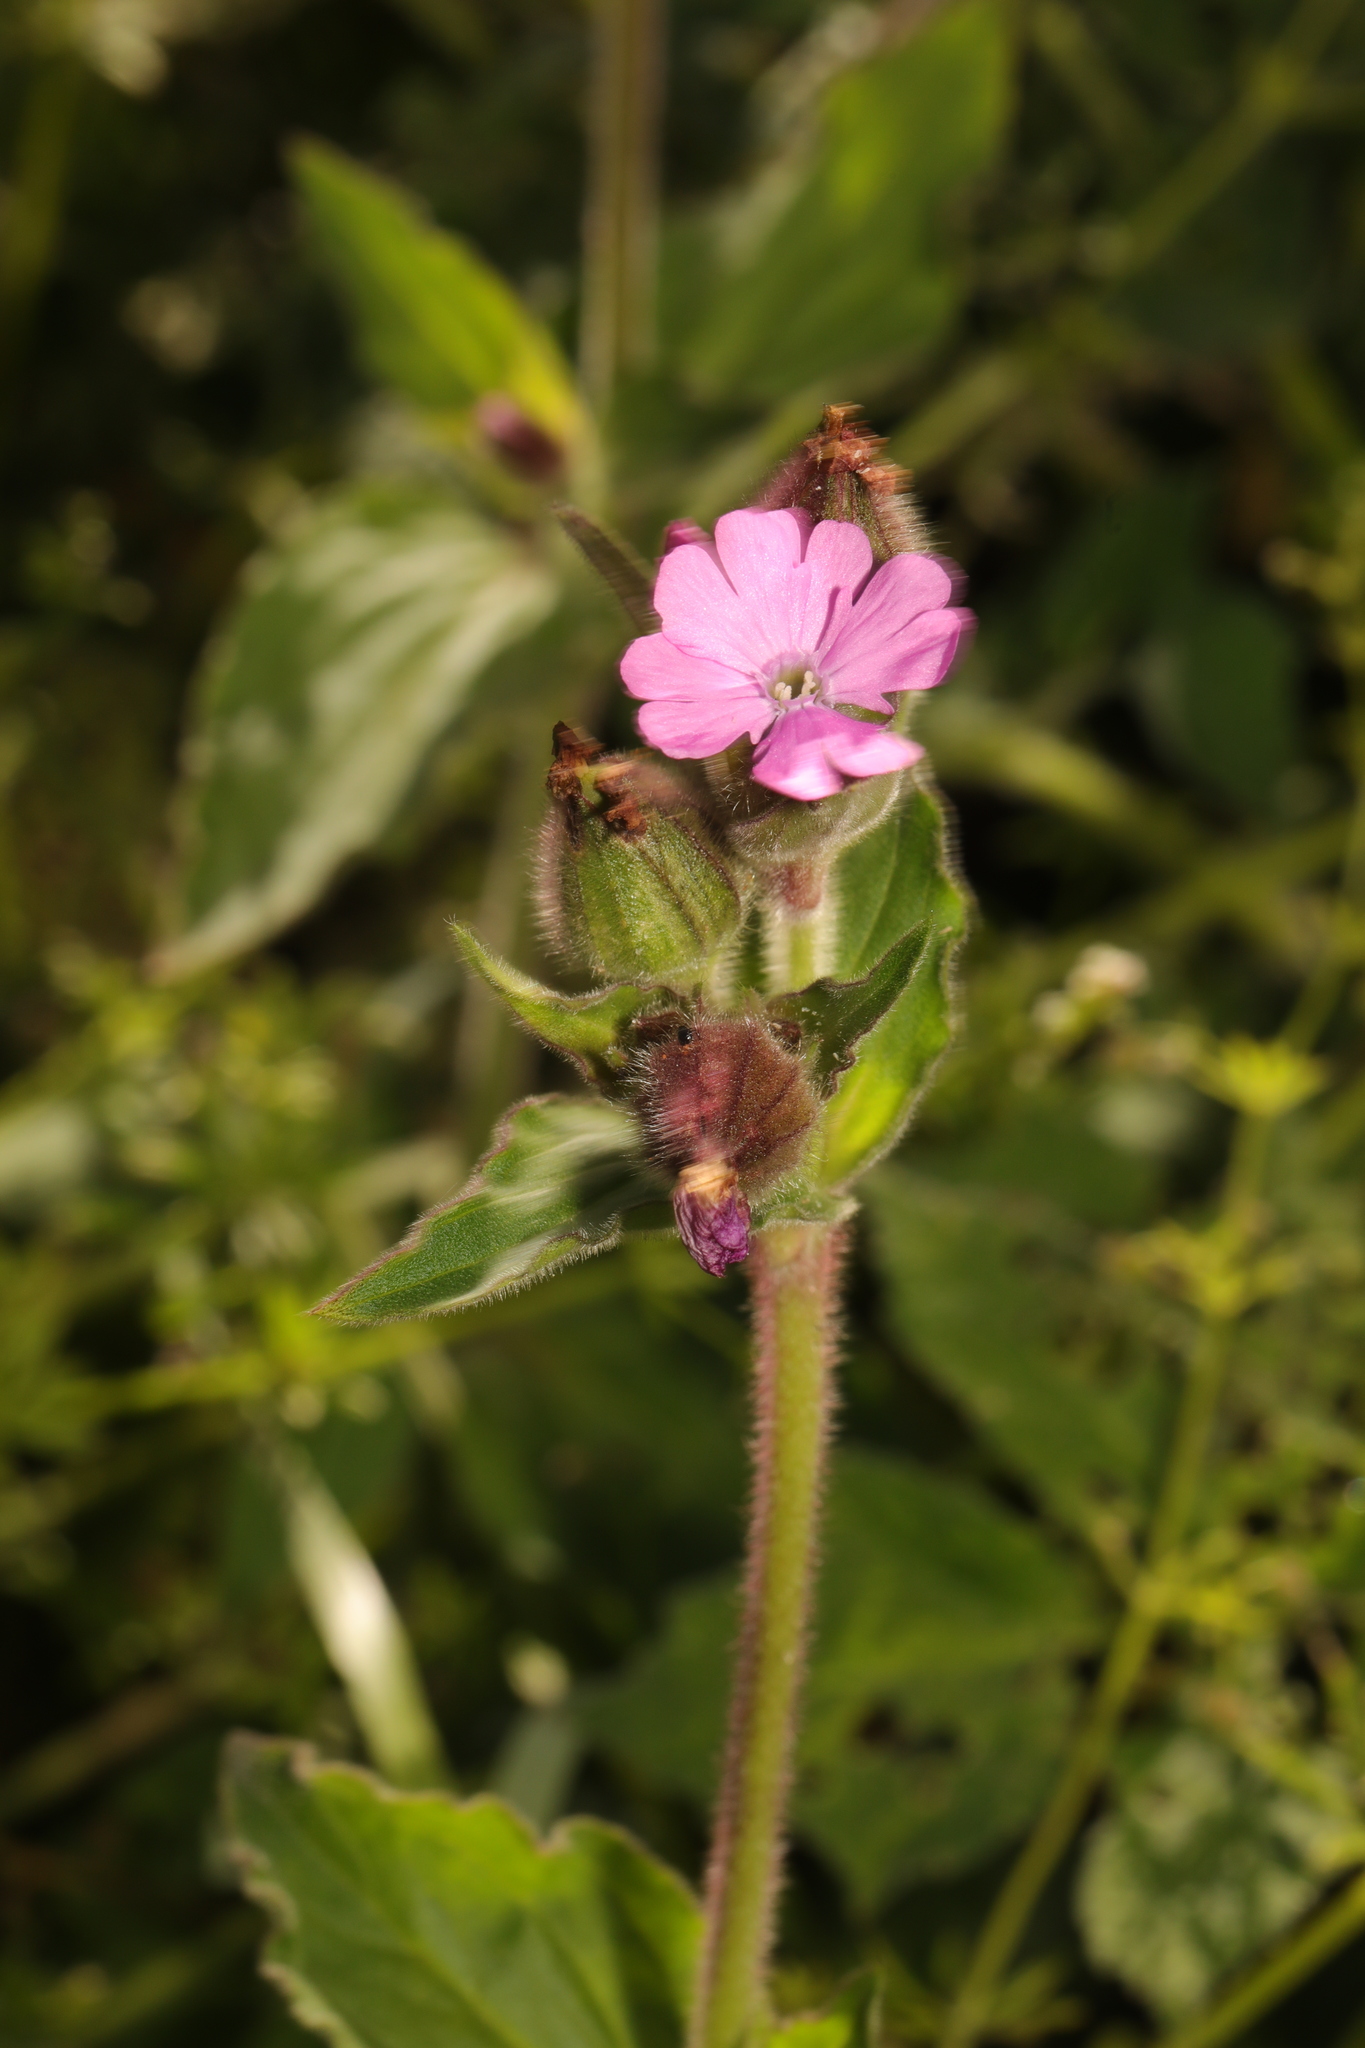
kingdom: Plantae
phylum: Tracheophyta
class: Magnoliopsida
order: Caryophyllales
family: Caryophyllaceae
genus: Silene
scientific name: Silene dioica
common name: Red campion
